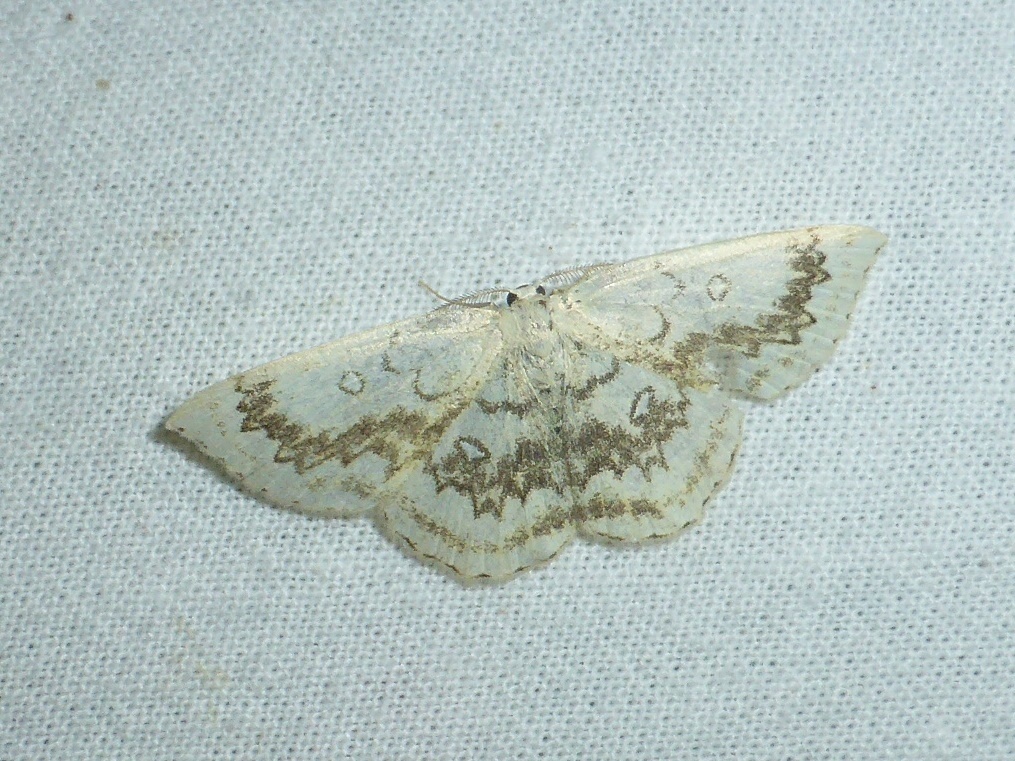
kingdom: Animalia
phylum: Arthropoda
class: Insecta
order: Lepidoptera
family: Geometridae
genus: Cyclophora
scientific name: Cyclophora annularia
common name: Mocha
